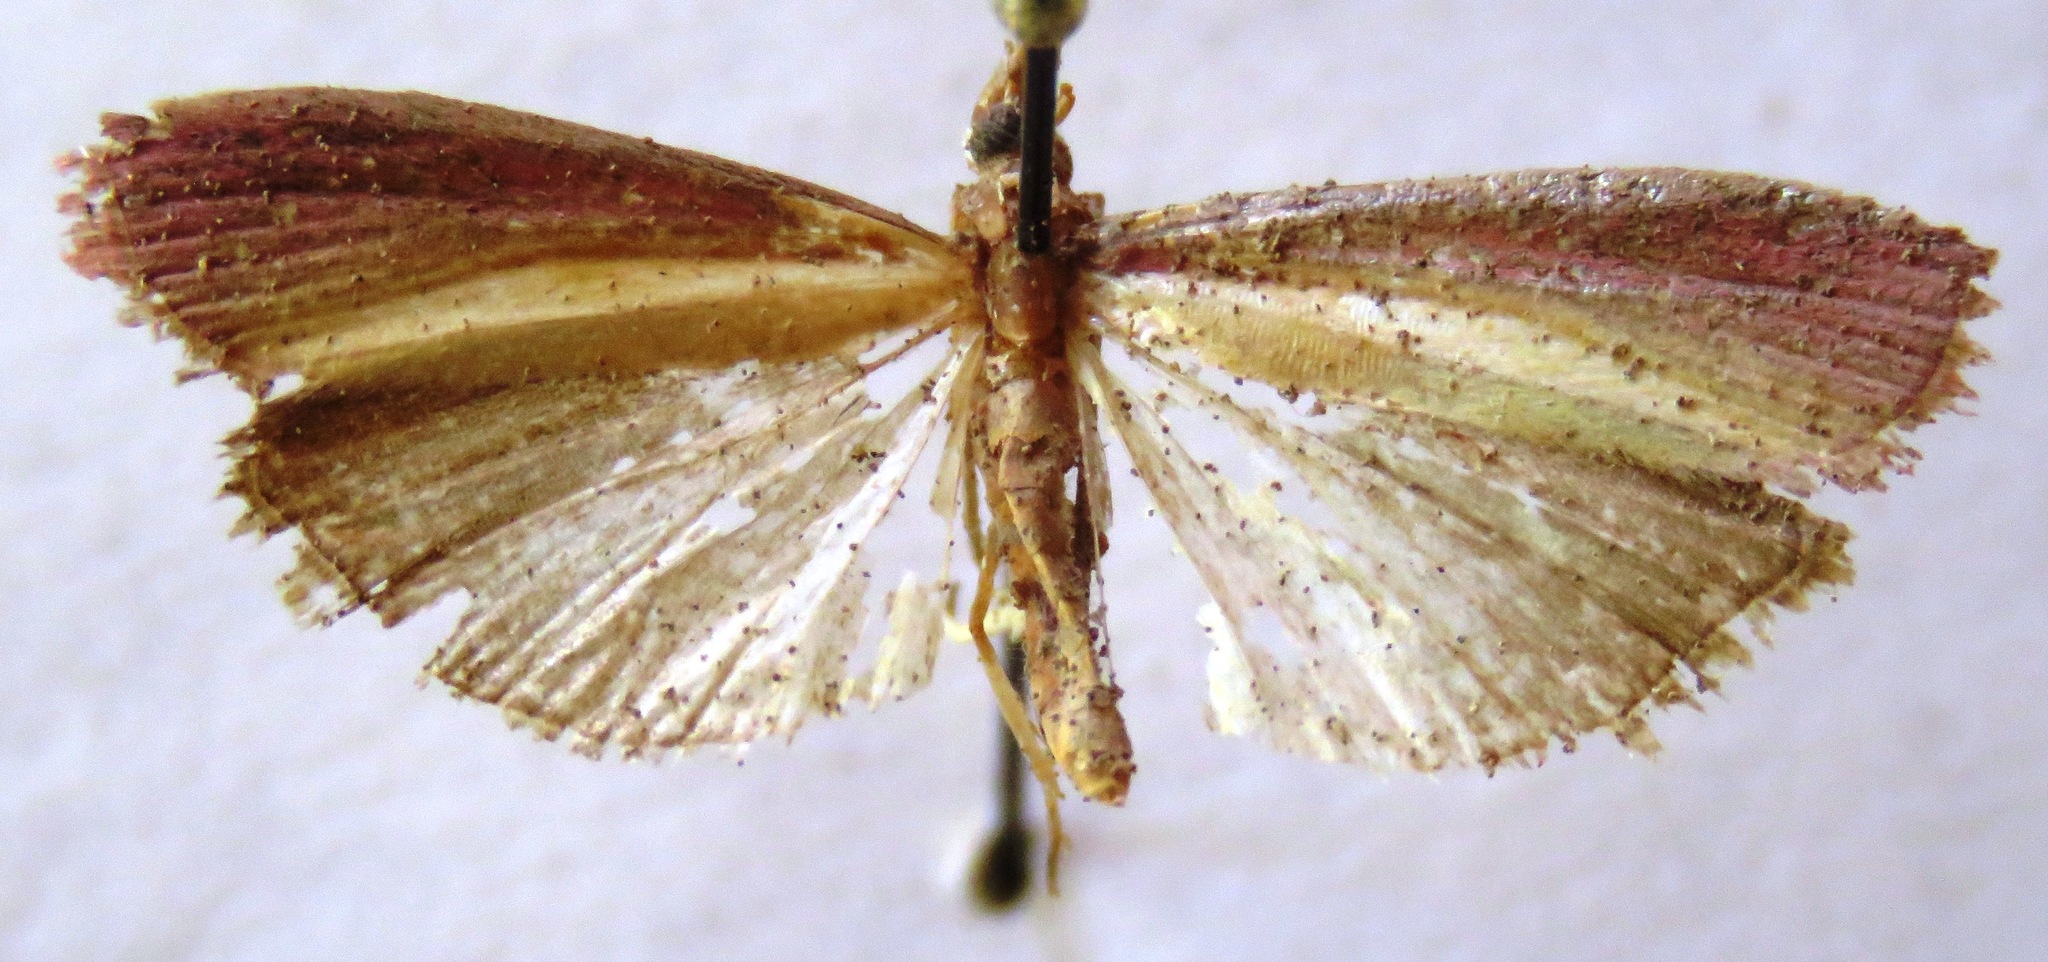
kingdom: Animalia
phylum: Arthropoda
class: Insecta
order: Lepidoptera
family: Pyralidae
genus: Oncocera
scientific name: Oncocera semirubella
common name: Rosy-striped knot-horn
